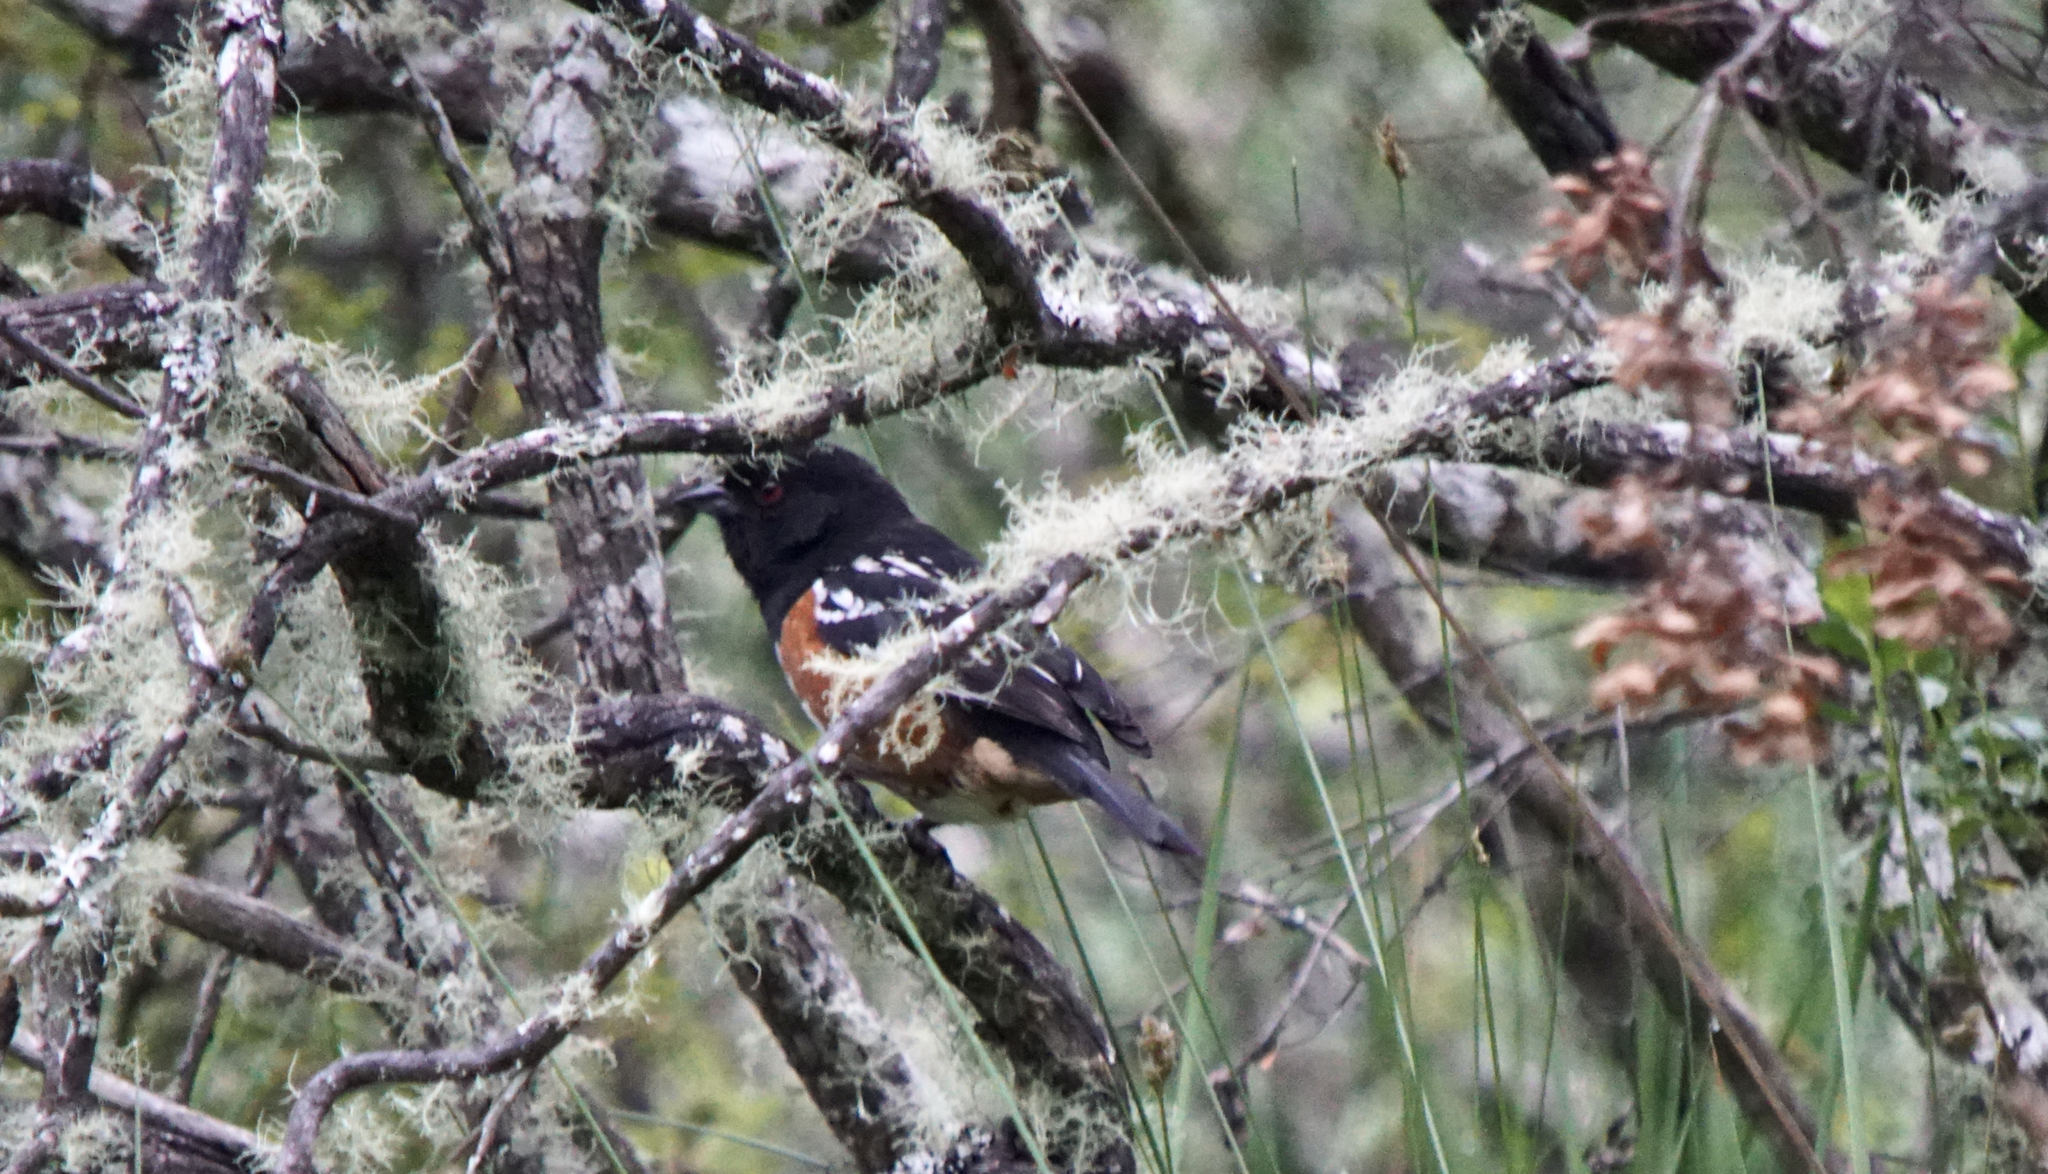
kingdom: Animalia
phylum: Chordata
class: Aves
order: Passeriformes
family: Passerellidae
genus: Pipilo
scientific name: Pipilo maculatus
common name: Spotted towhee
